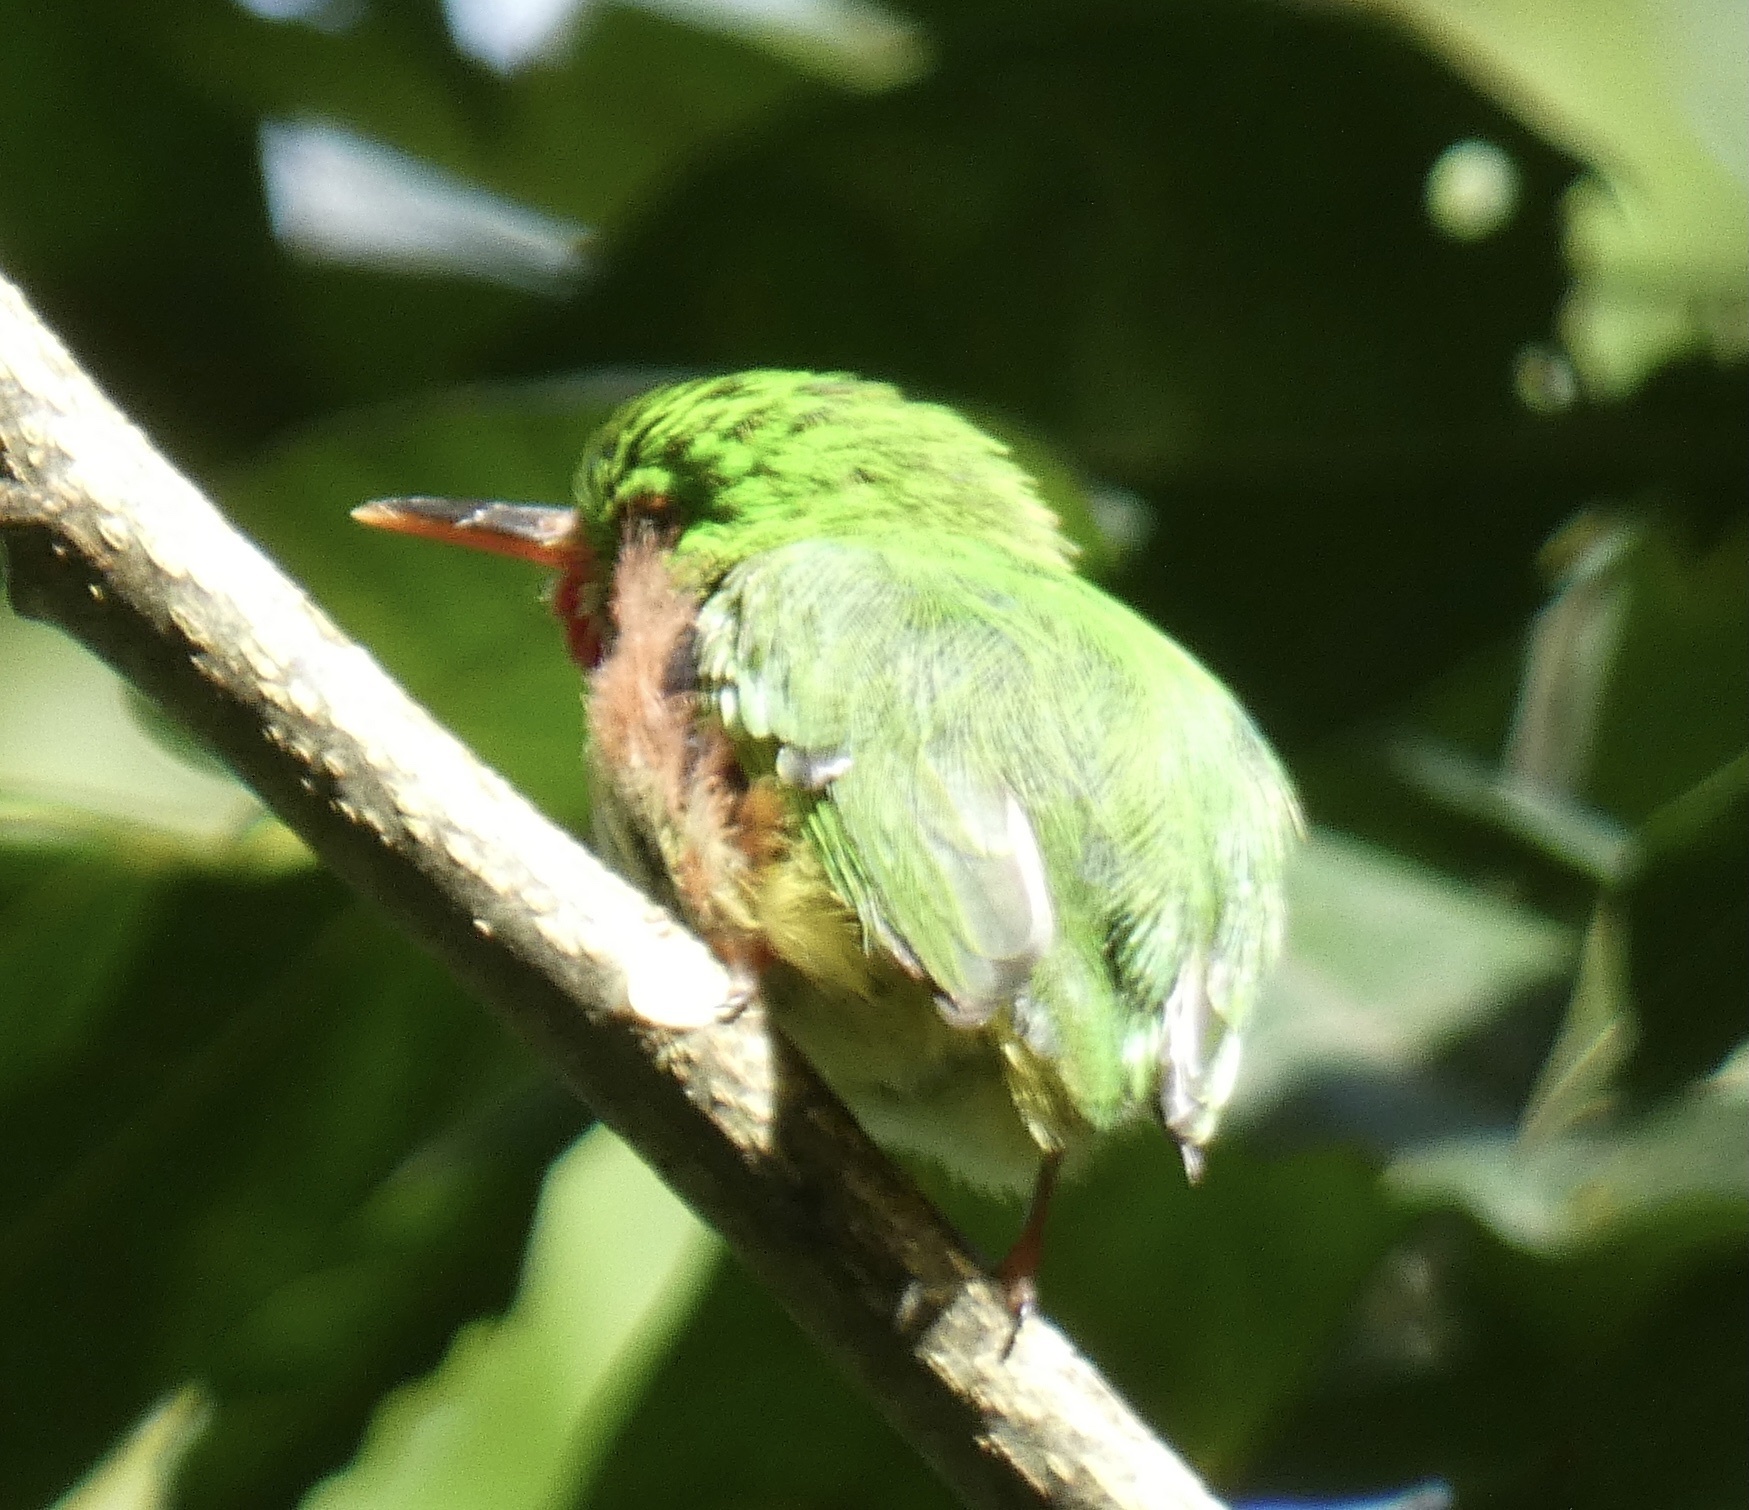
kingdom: Animalia
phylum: Chordata
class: Aves
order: Coraciiformes
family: Todidae
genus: Todus
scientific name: Todus todus
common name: Jamaican tody
